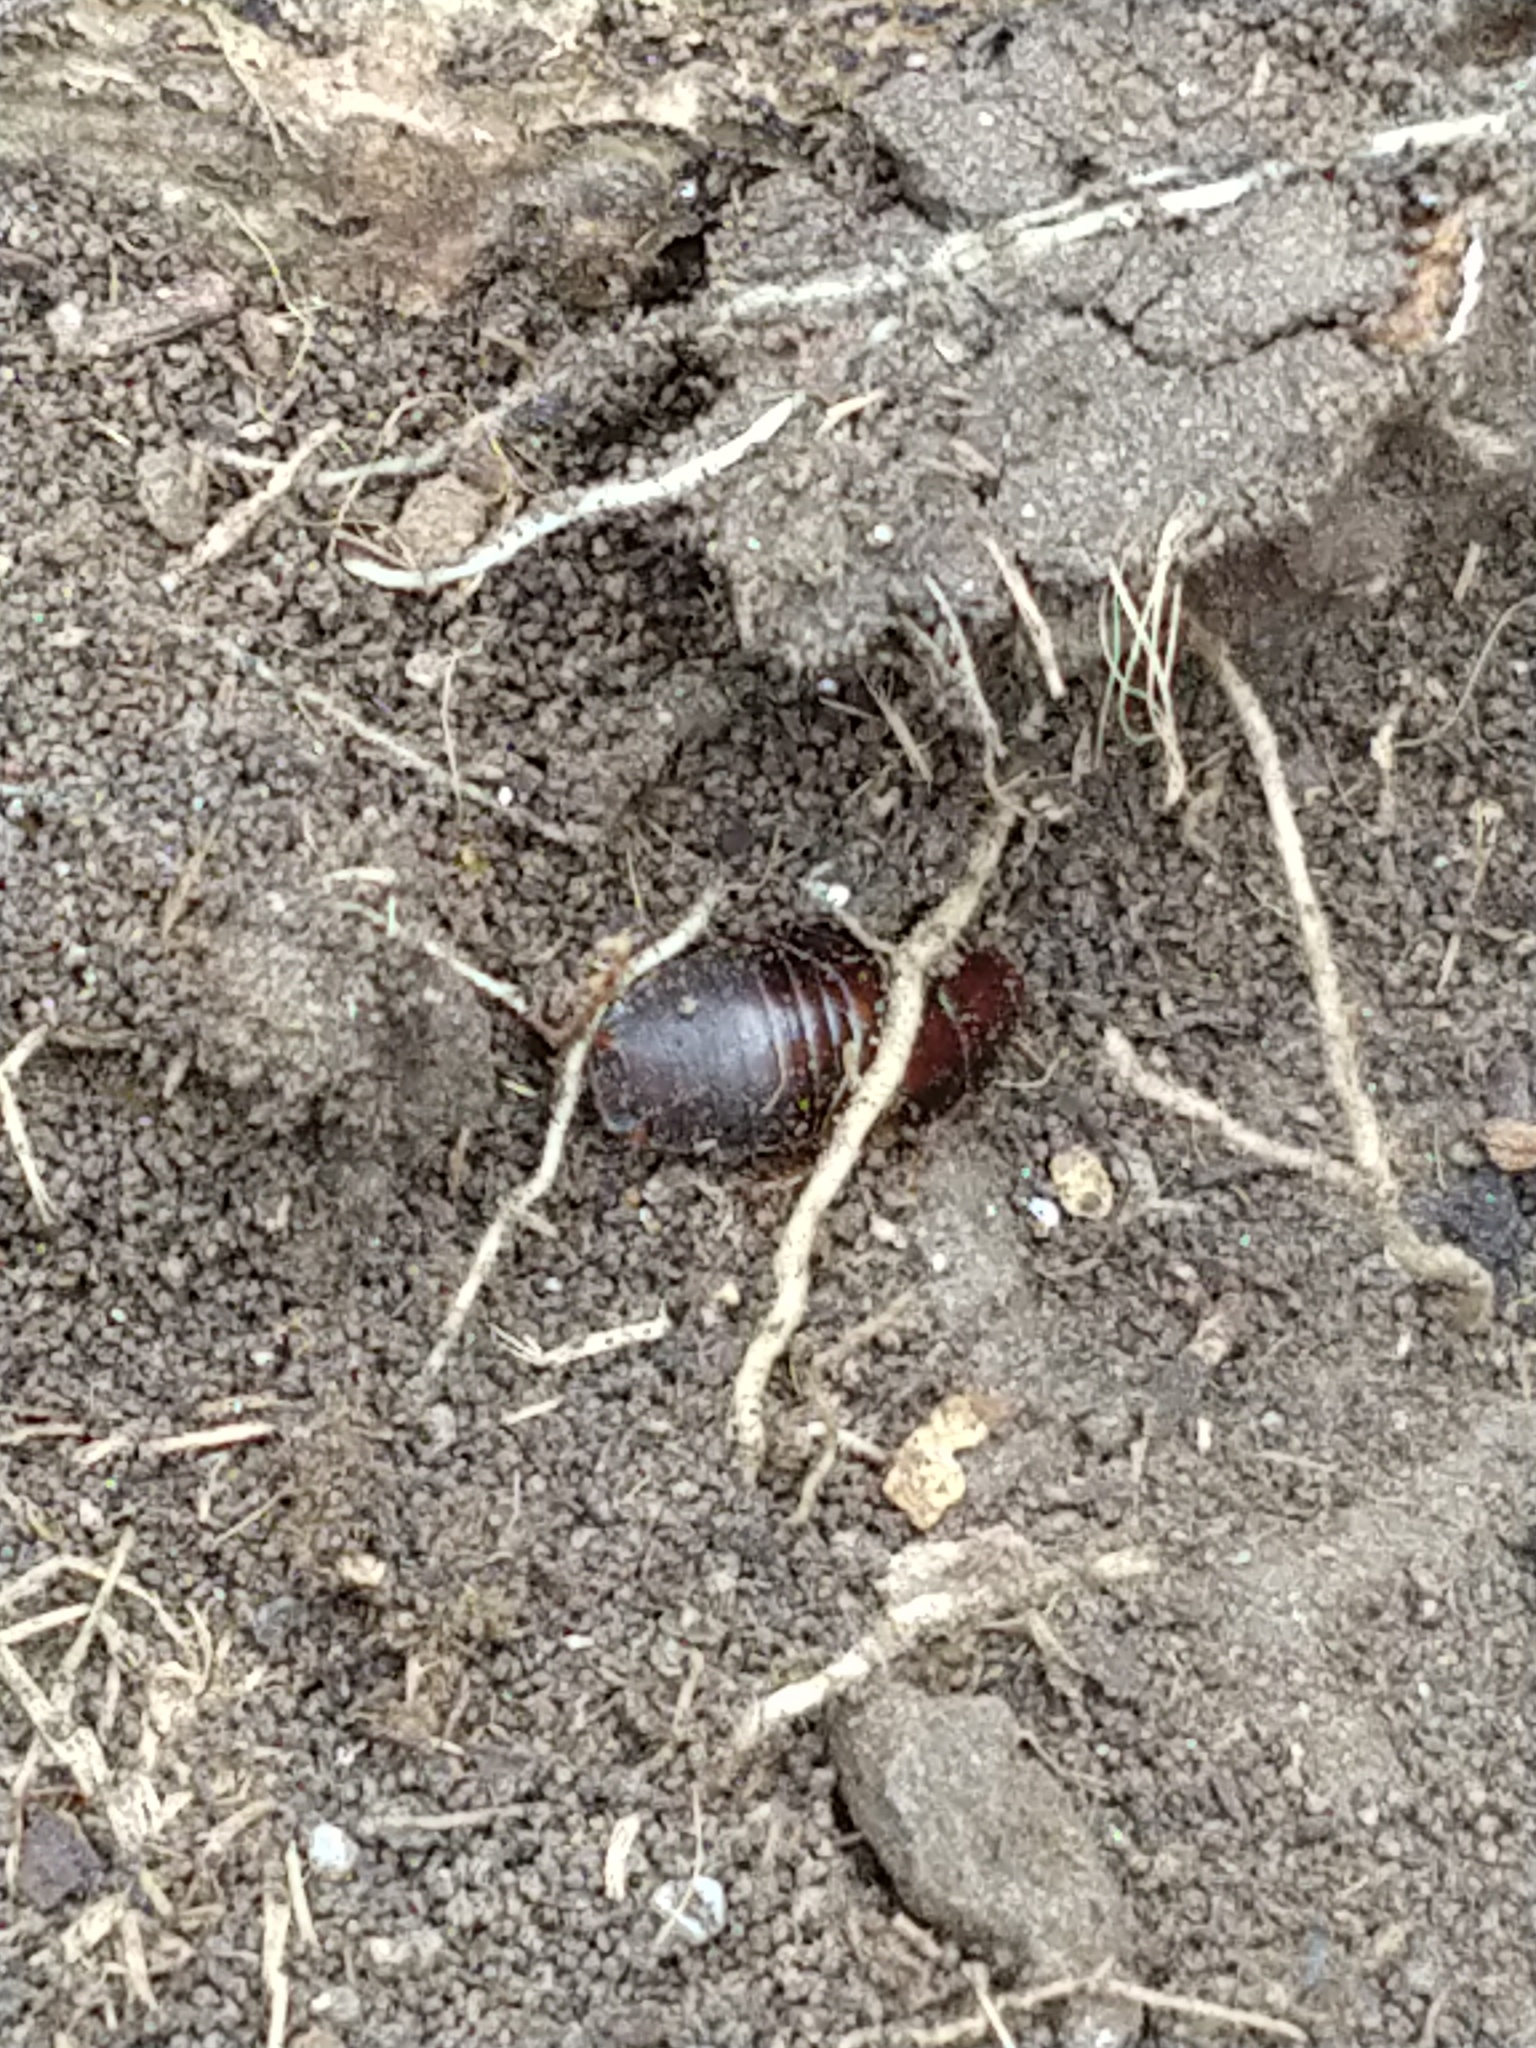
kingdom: Animalia
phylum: Arthropoda
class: Insecta
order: Blattodea
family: Blaberidae
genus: Pycnoscelus
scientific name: Pycnoscelus surinamensis
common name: Surinam cockroach
